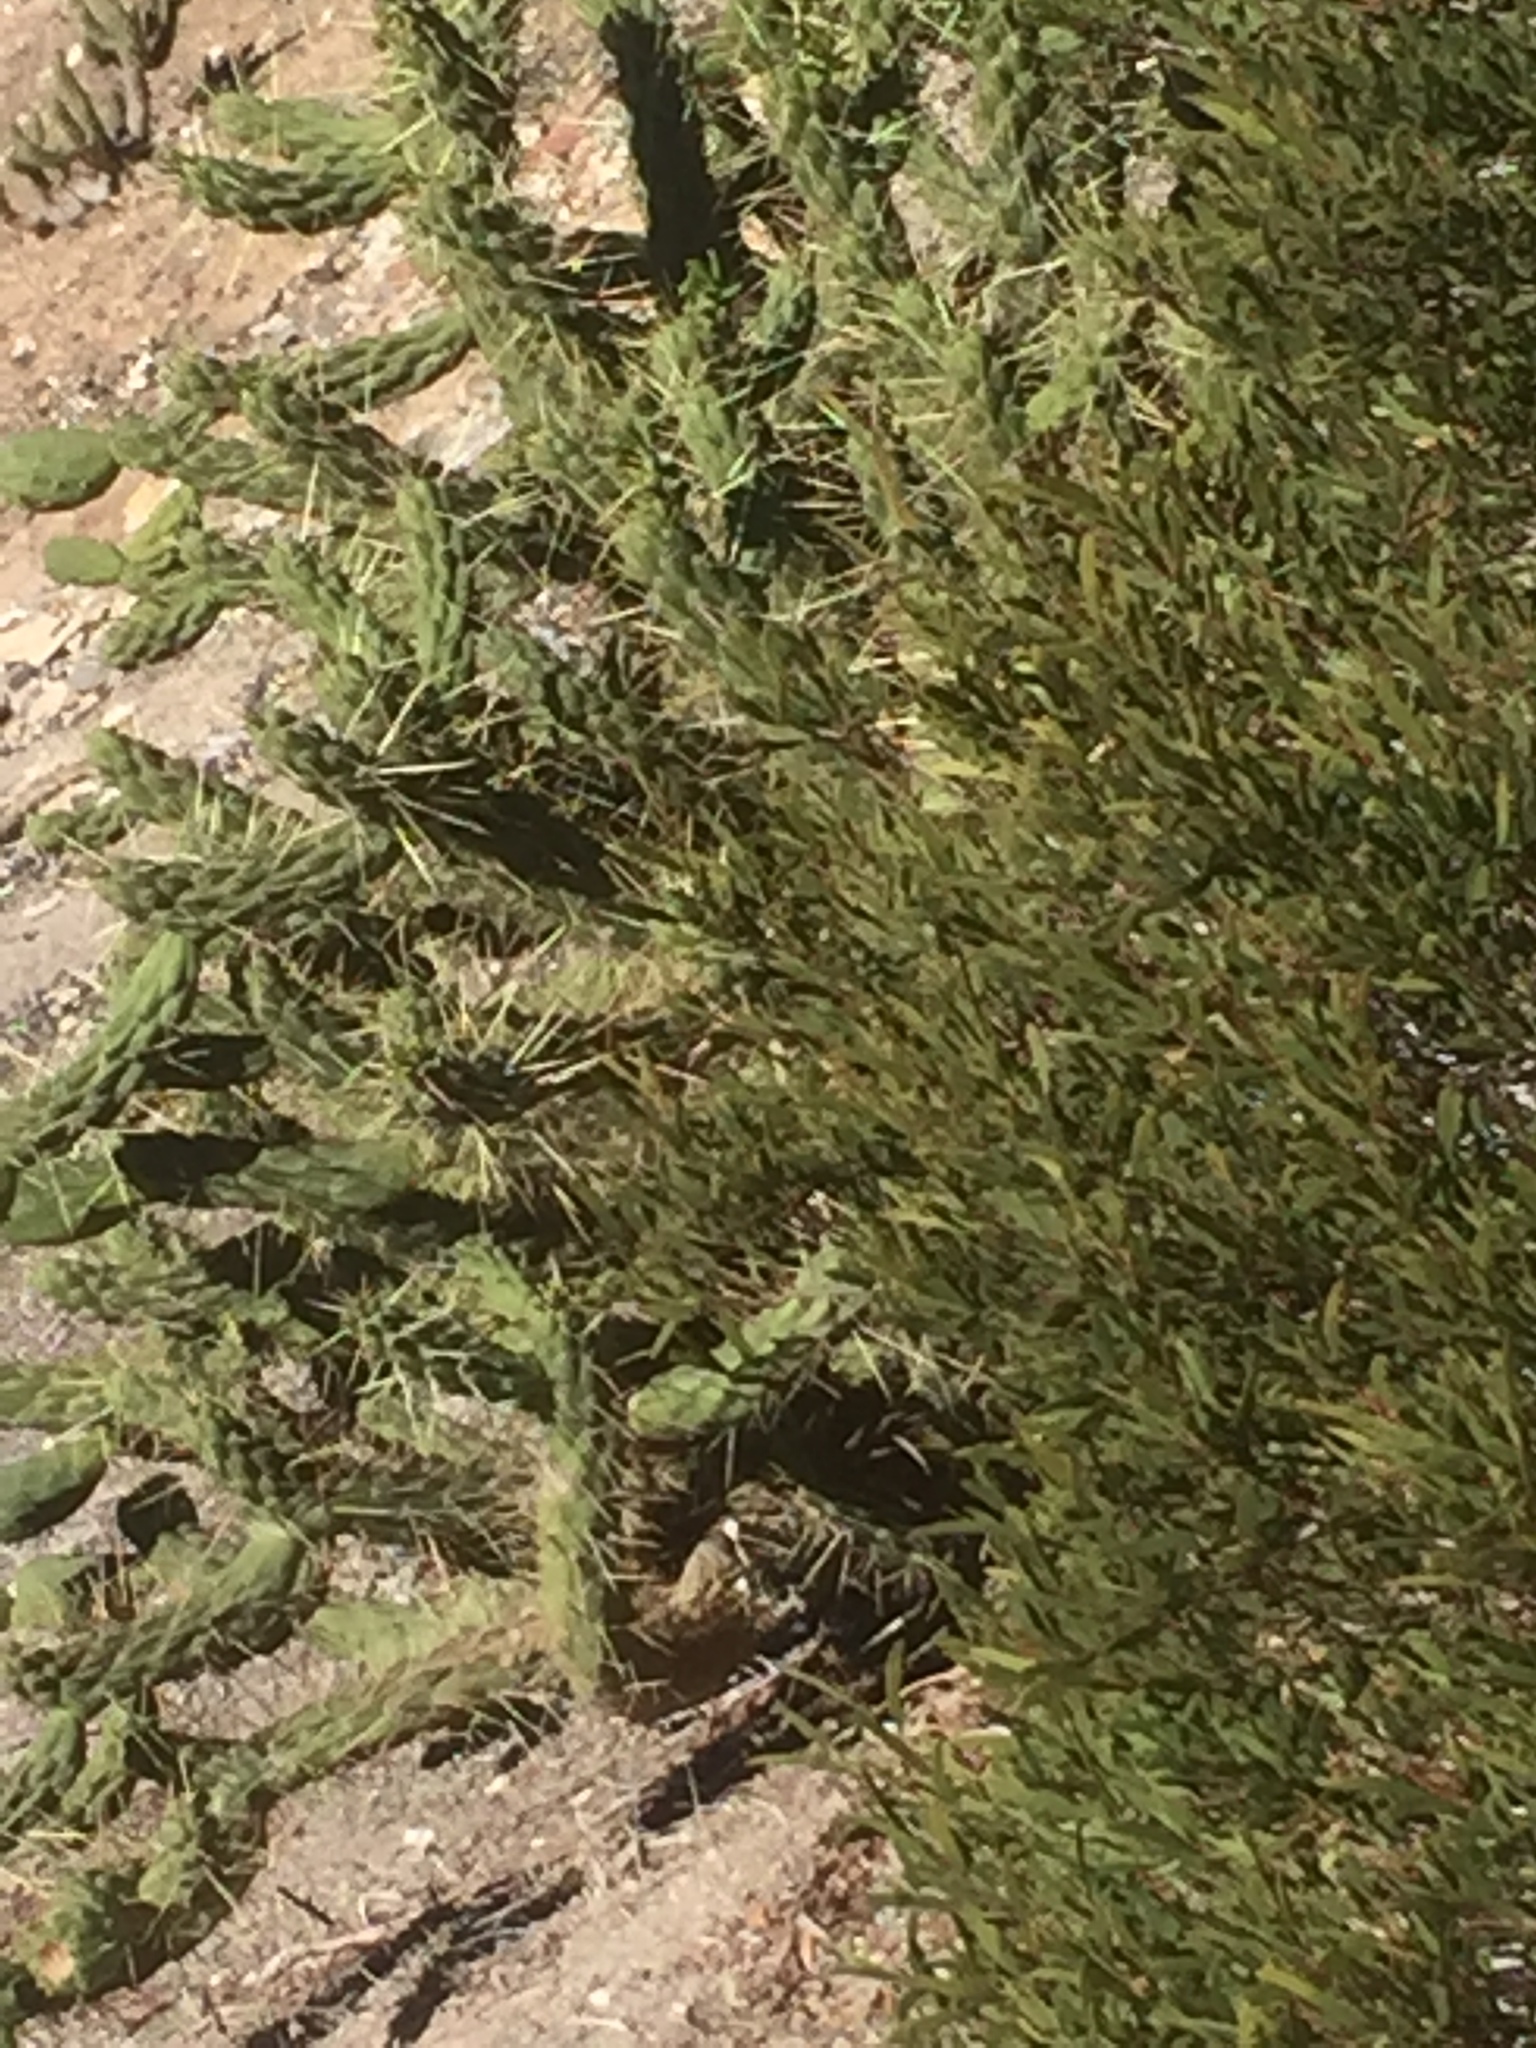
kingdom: Plantae
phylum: Tracheophyta
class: Magnoliopsida
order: Caryophyllales
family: Cactaceae
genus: Austrocylindropuntia
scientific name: Austrocylindropuntia subulata
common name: Eve's needle cactus
